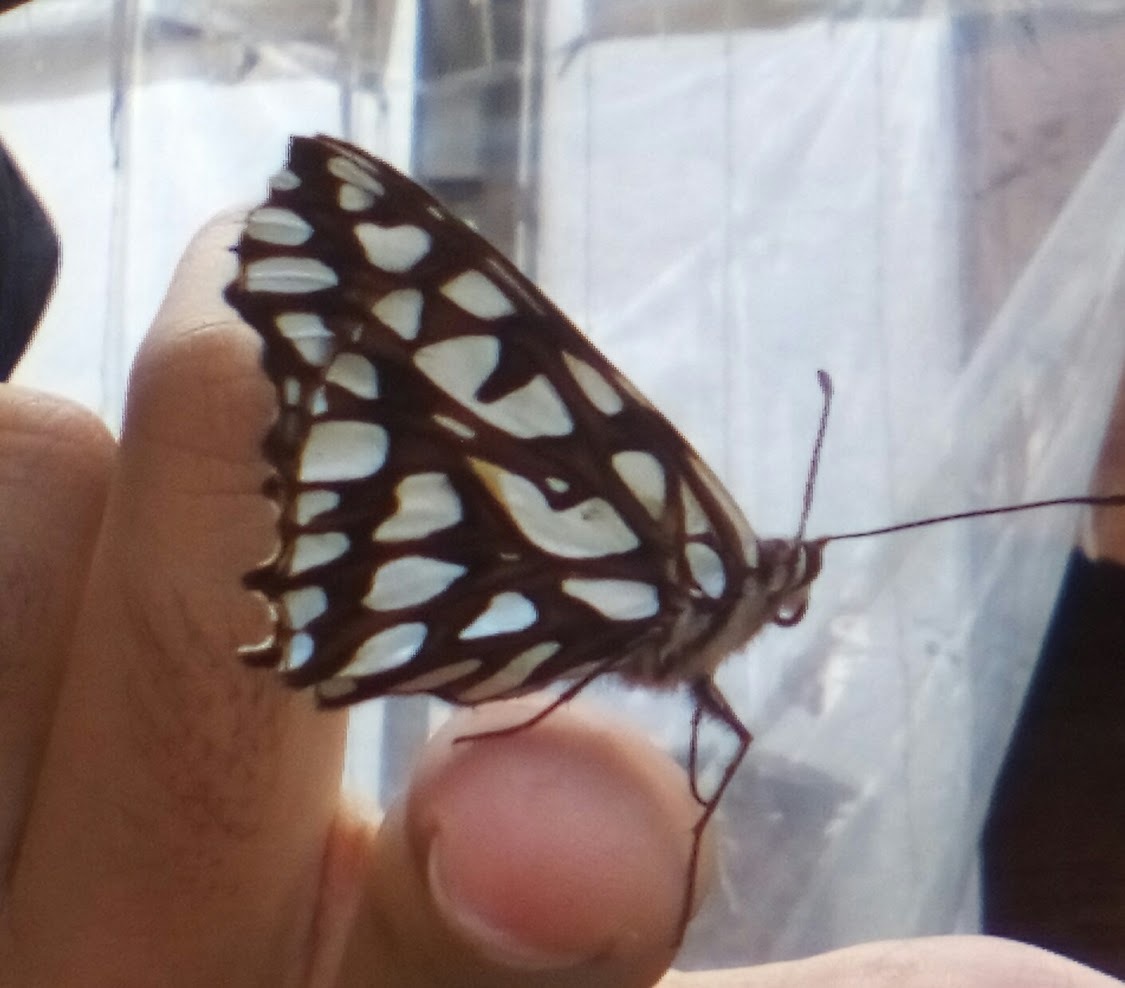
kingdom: Animalia
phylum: Arthropoda
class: Insecta
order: Lepidoptera
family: Nymphalidae
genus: Dione
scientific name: Dione glycera
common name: Andean silverspot
